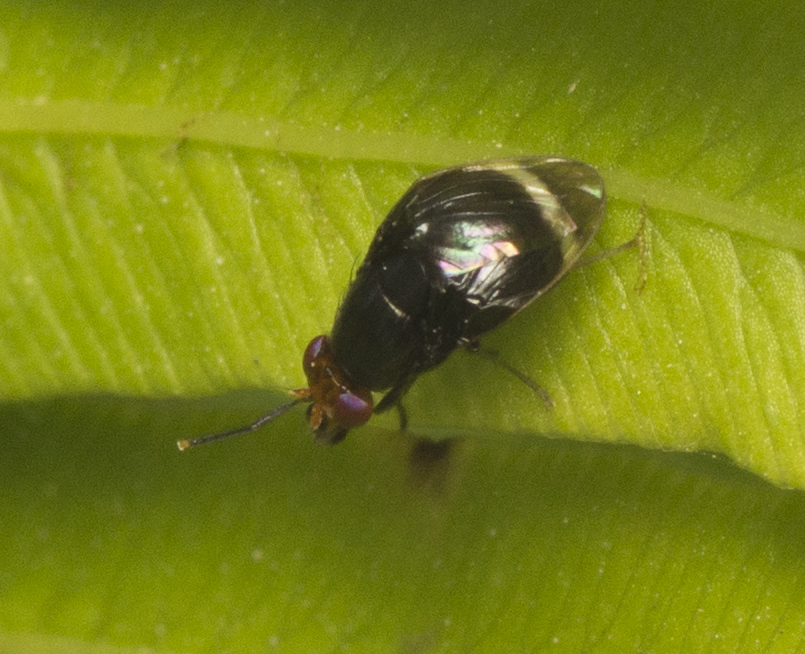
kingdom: Animalia
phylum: Arthropoda
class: Insecta
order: Diptera
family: Lauxaniidae
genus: Depressa
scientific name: Depressa atrata
